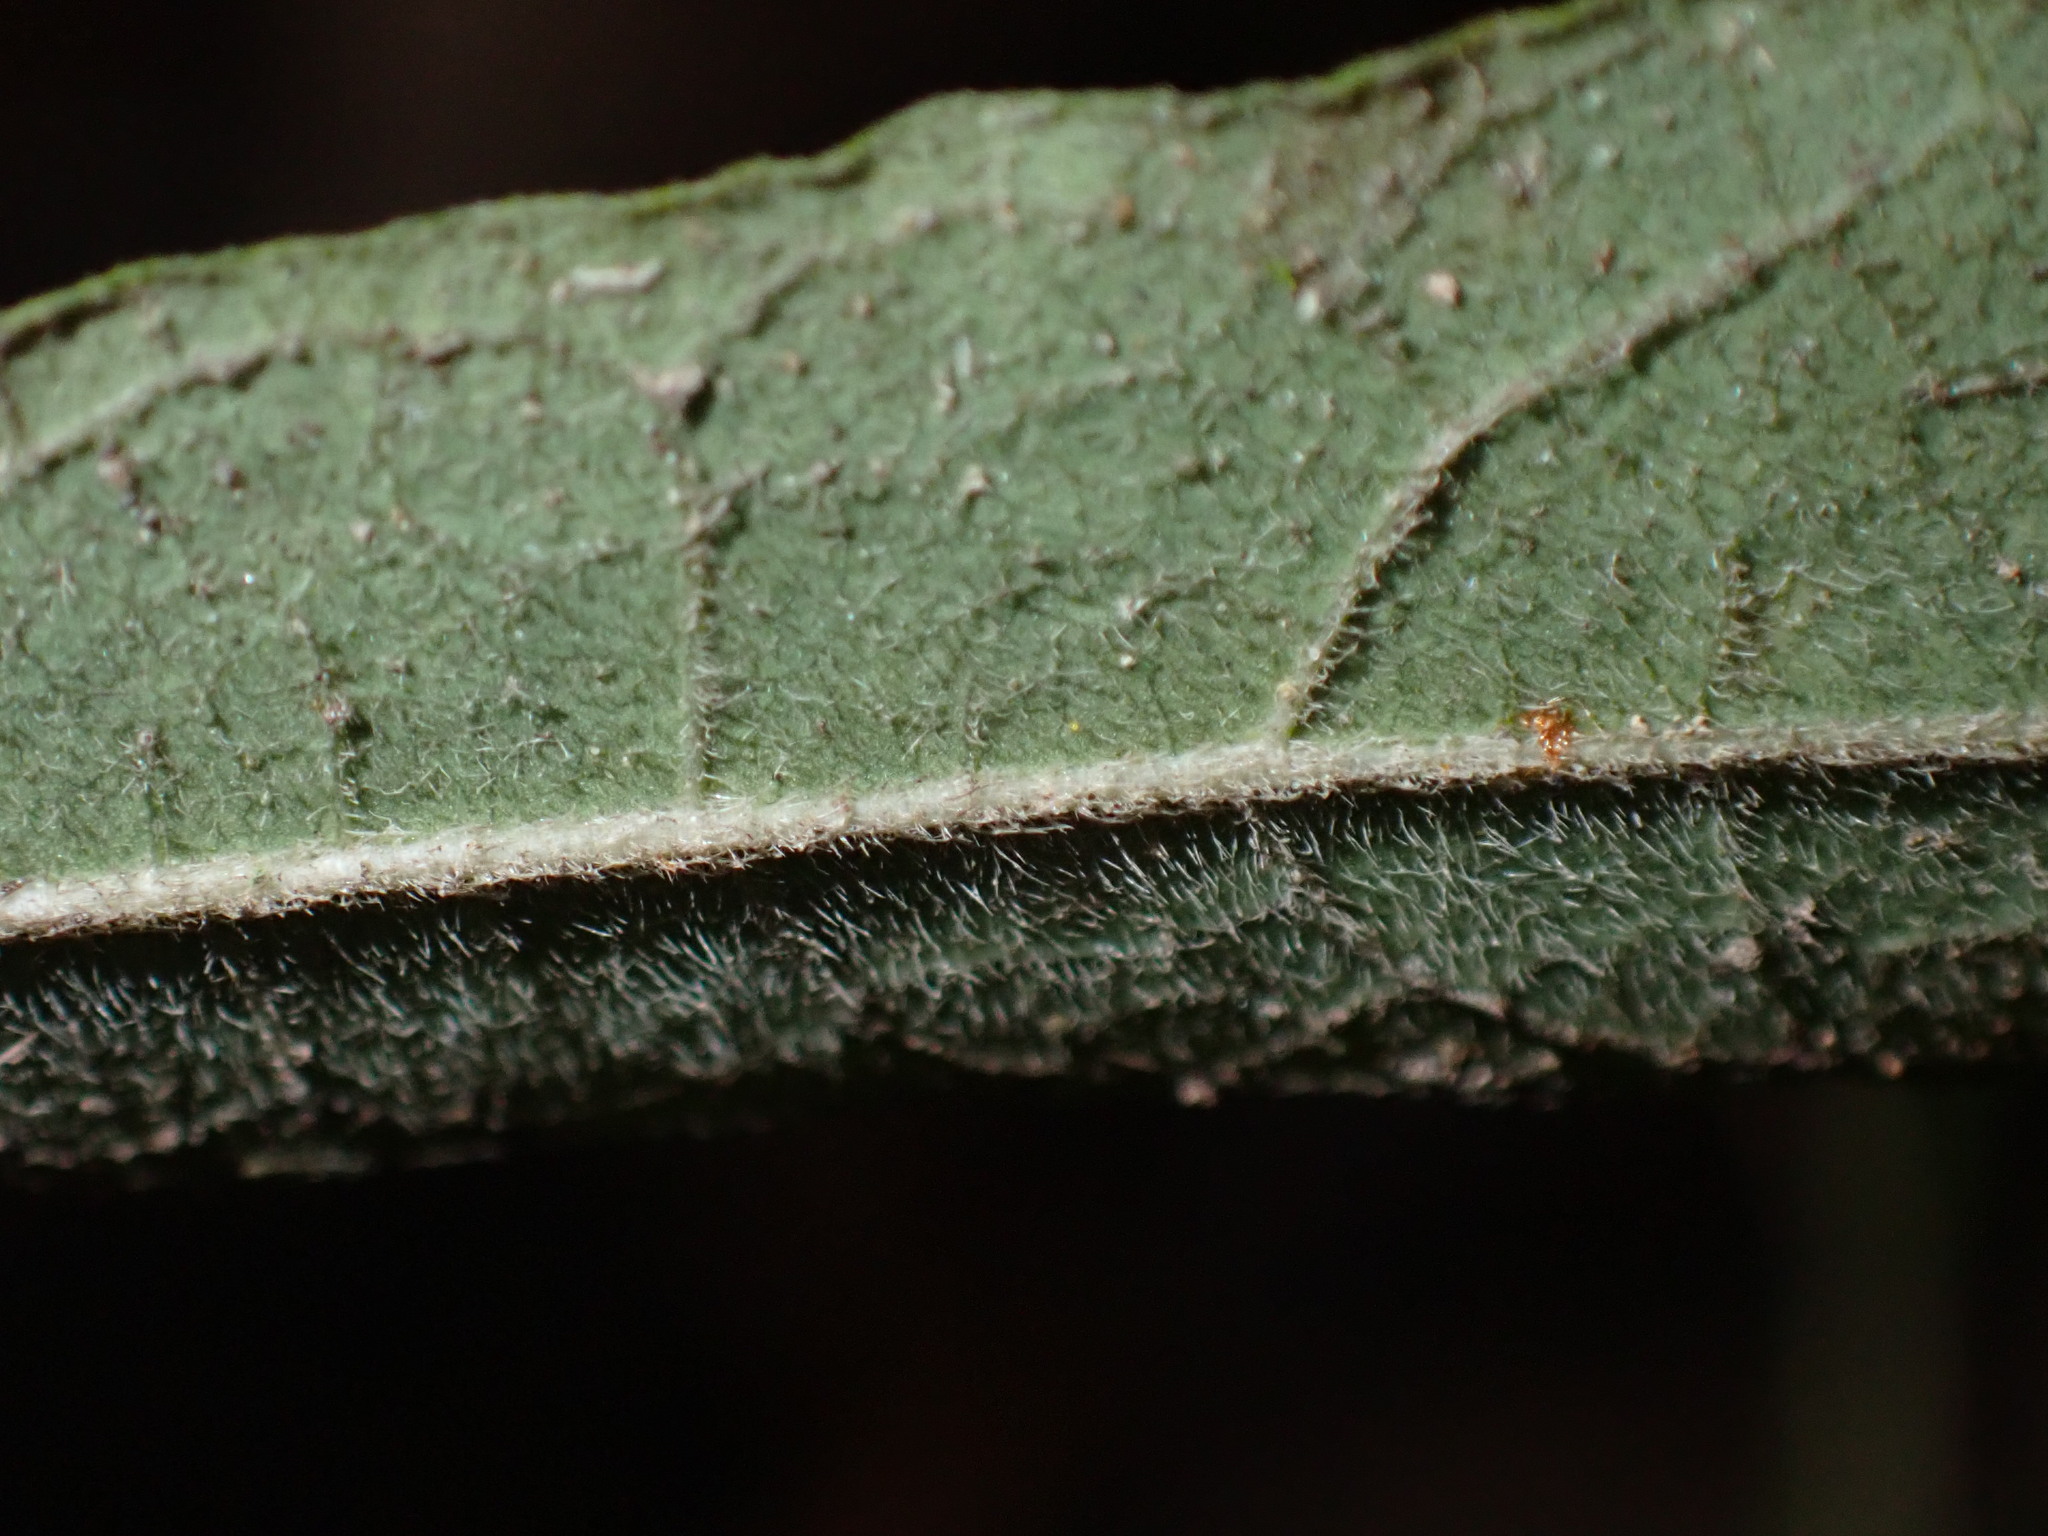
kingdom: Plantae
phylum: Tracheophyta
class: Magnoliopsida
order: Piperales
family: Aristolochiaceae
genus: Isotrema
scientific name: Isotrema cucurbitifolium
